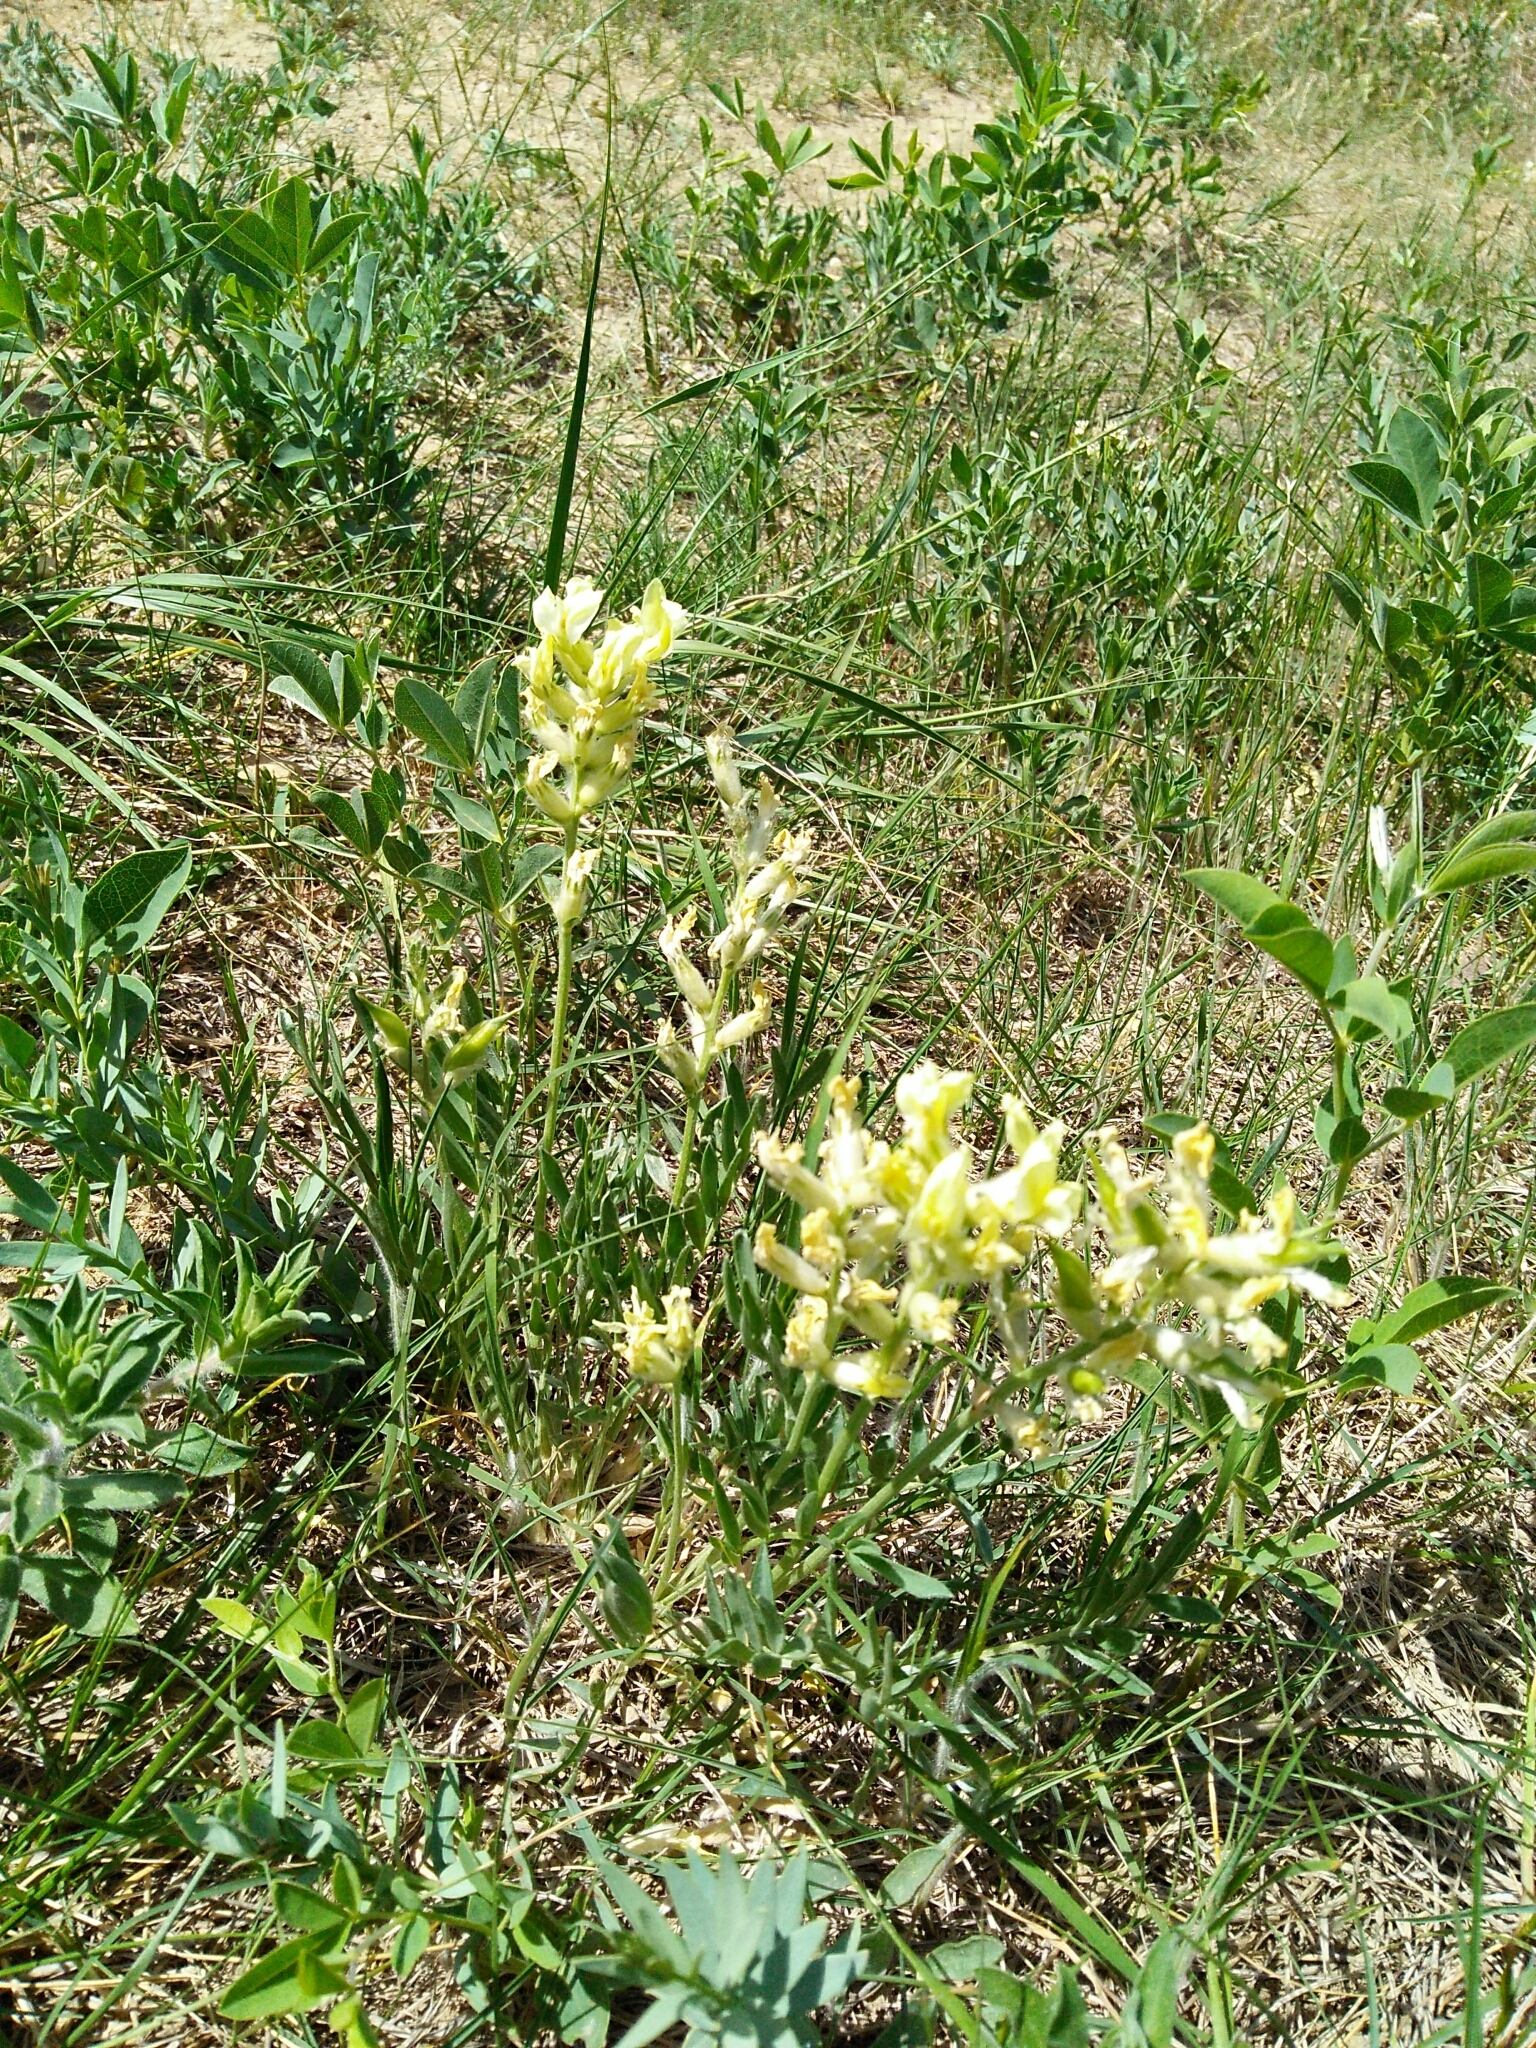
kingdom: Plantae
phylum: Tracheophyta
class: Magnoliopsida
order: Fabales
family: Fabaceae
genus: Oxytropis
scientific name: Oxytropis sericea
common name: Silky locoweed
